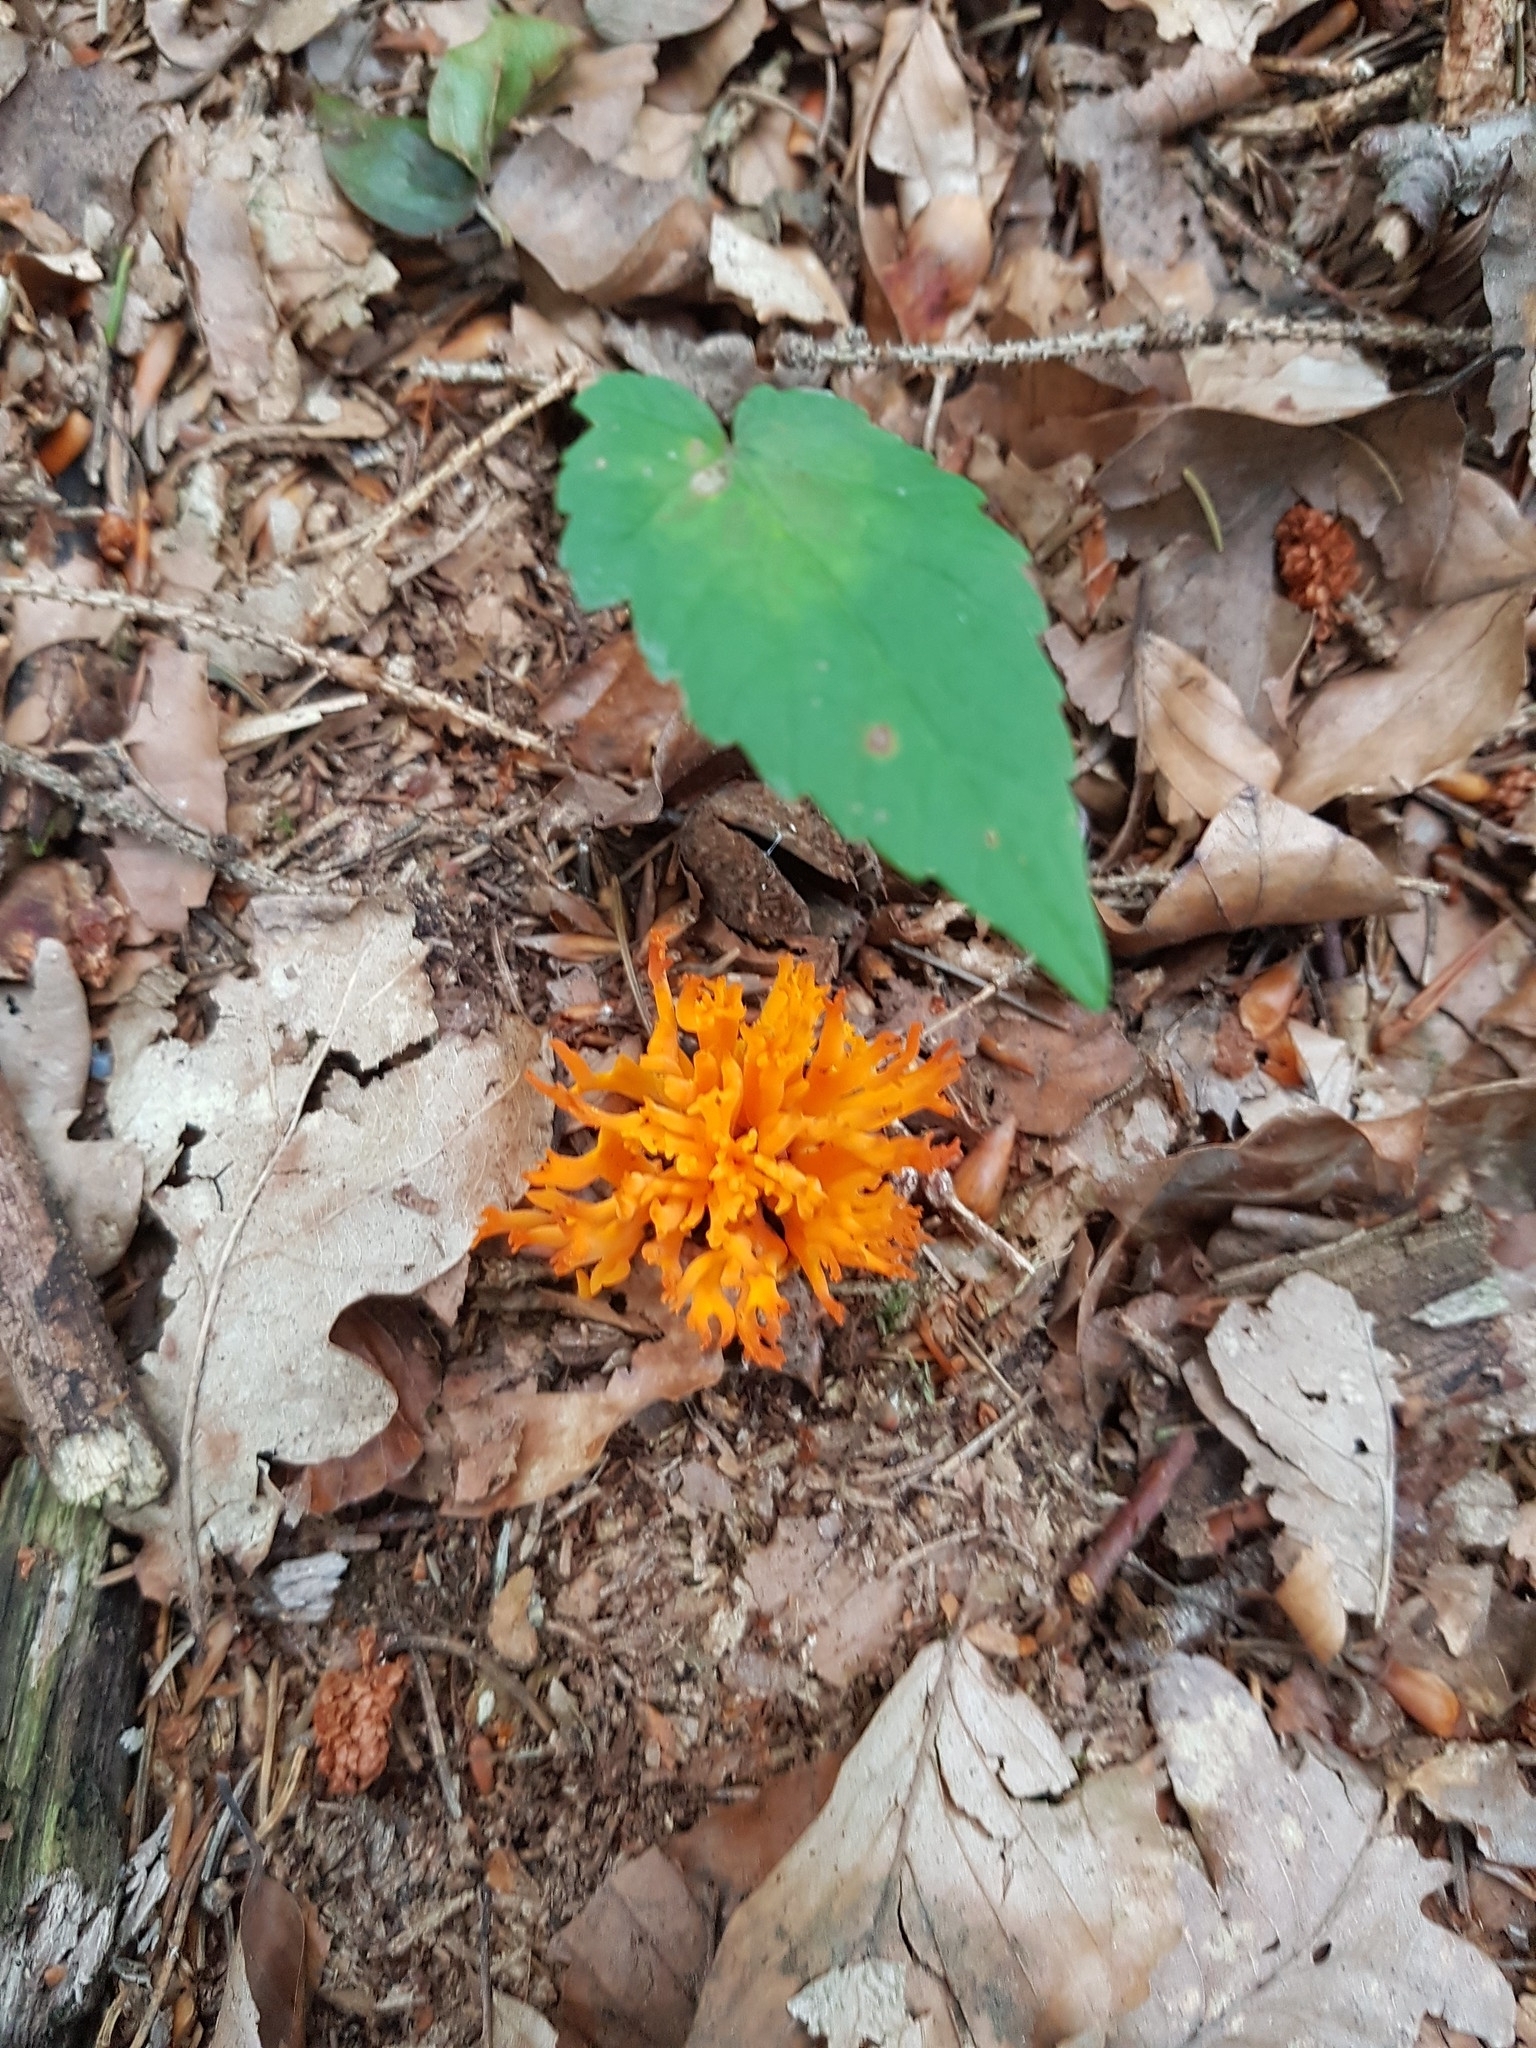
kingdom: Fungi
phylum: Basidiomycota
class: Dacrymycetes
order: Dacrymycetales
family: Dacrymycetaceae
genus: Calocera
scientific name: Calocera viscosa
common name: Yellow stagshorn
